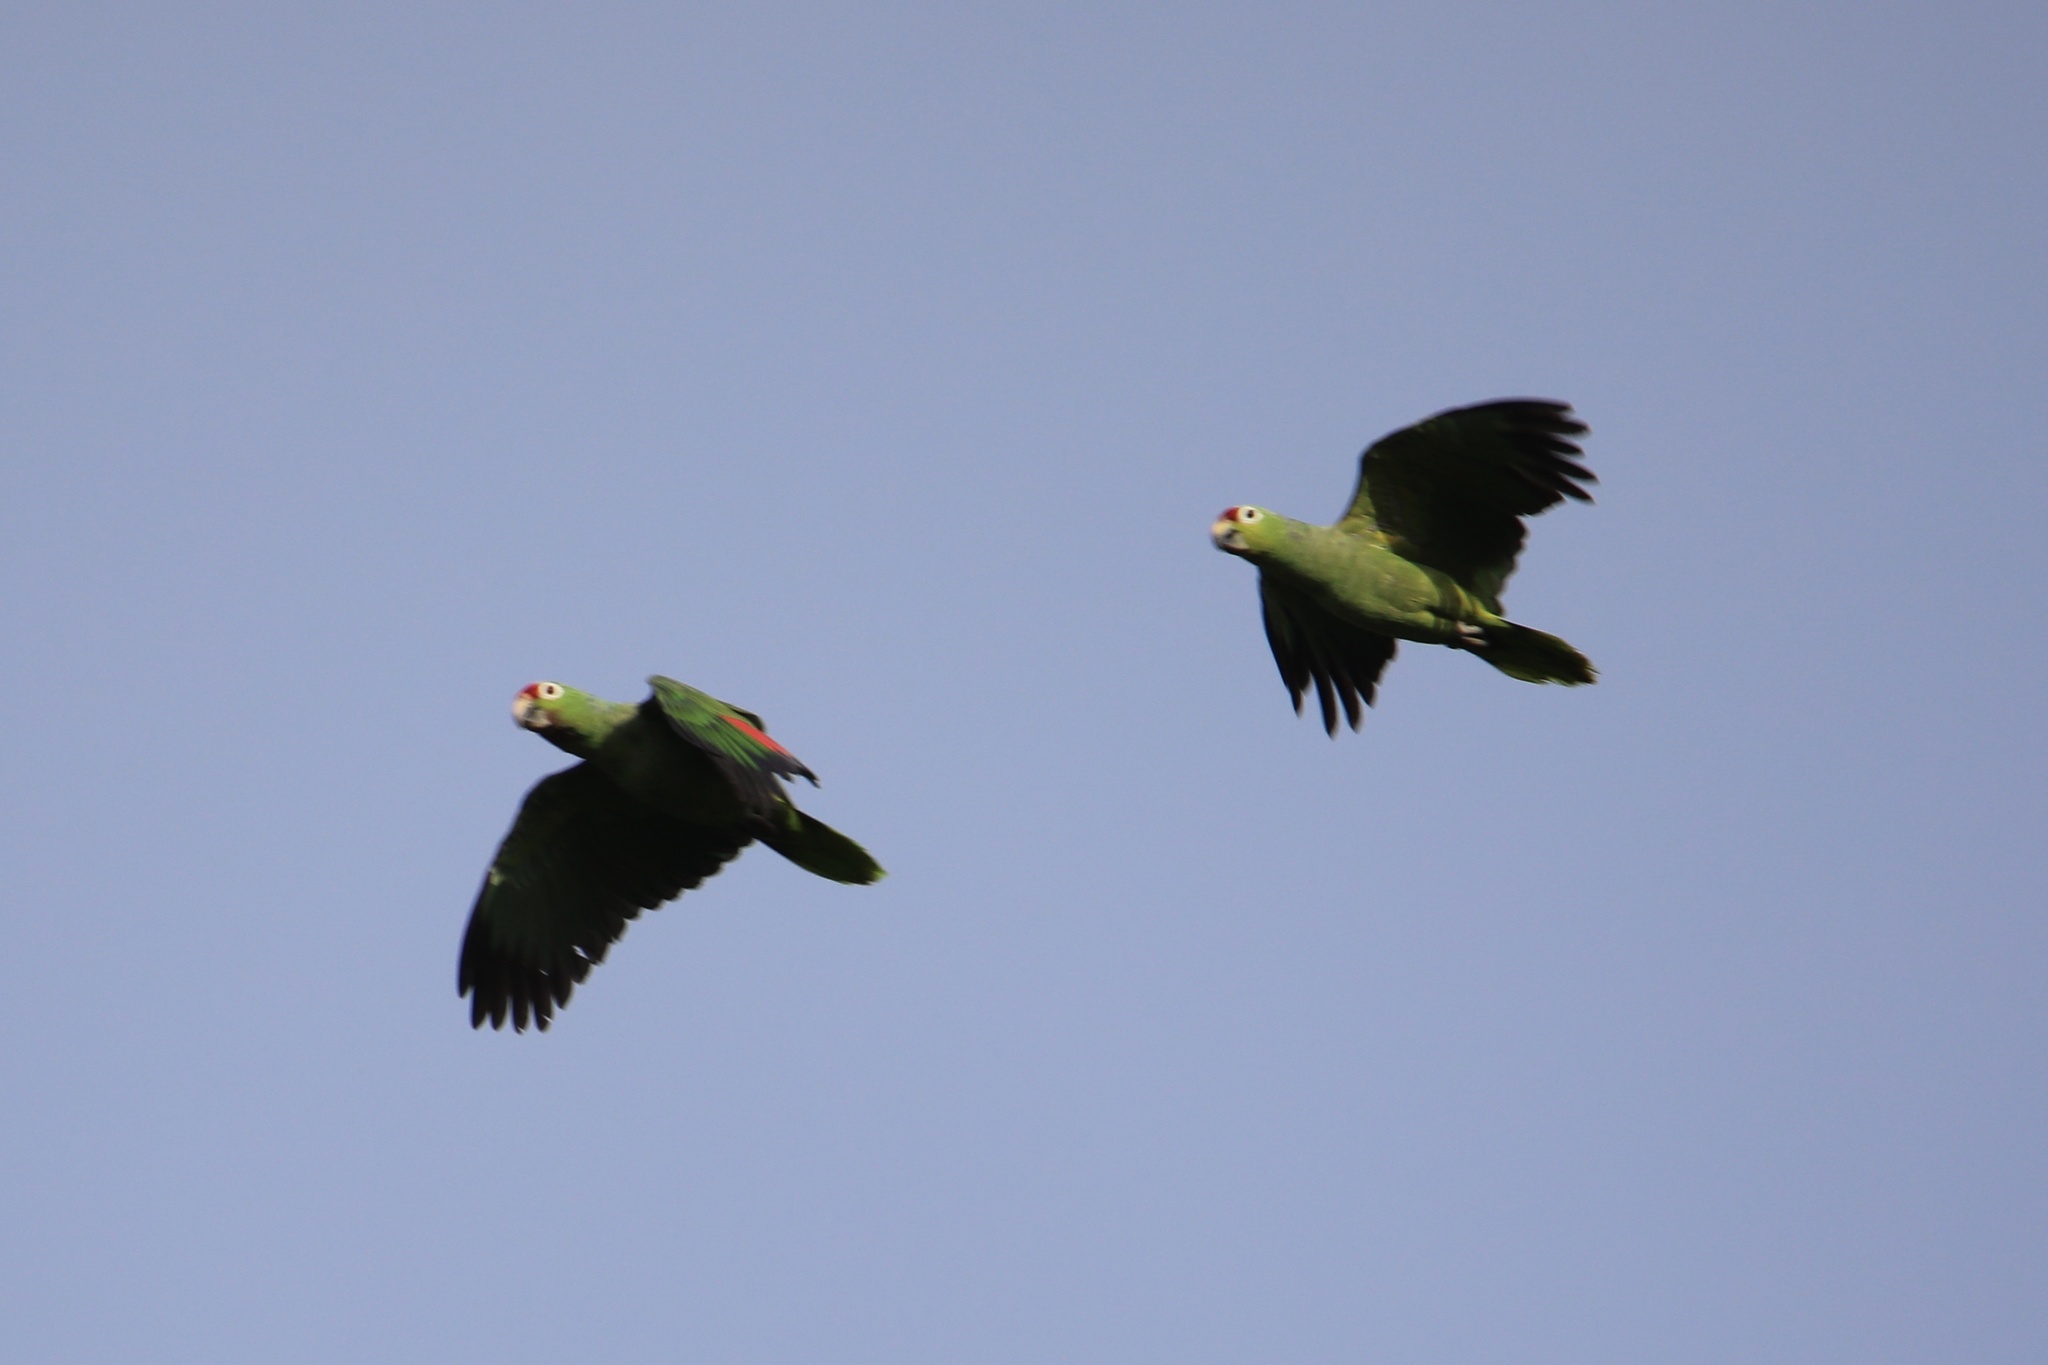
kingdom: Animalia
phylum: Chordata
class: Aves
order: Psittaciformes
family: Psittacidae
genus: Amazona
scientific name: Amazona autumnalis
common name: Red-lored amazon
